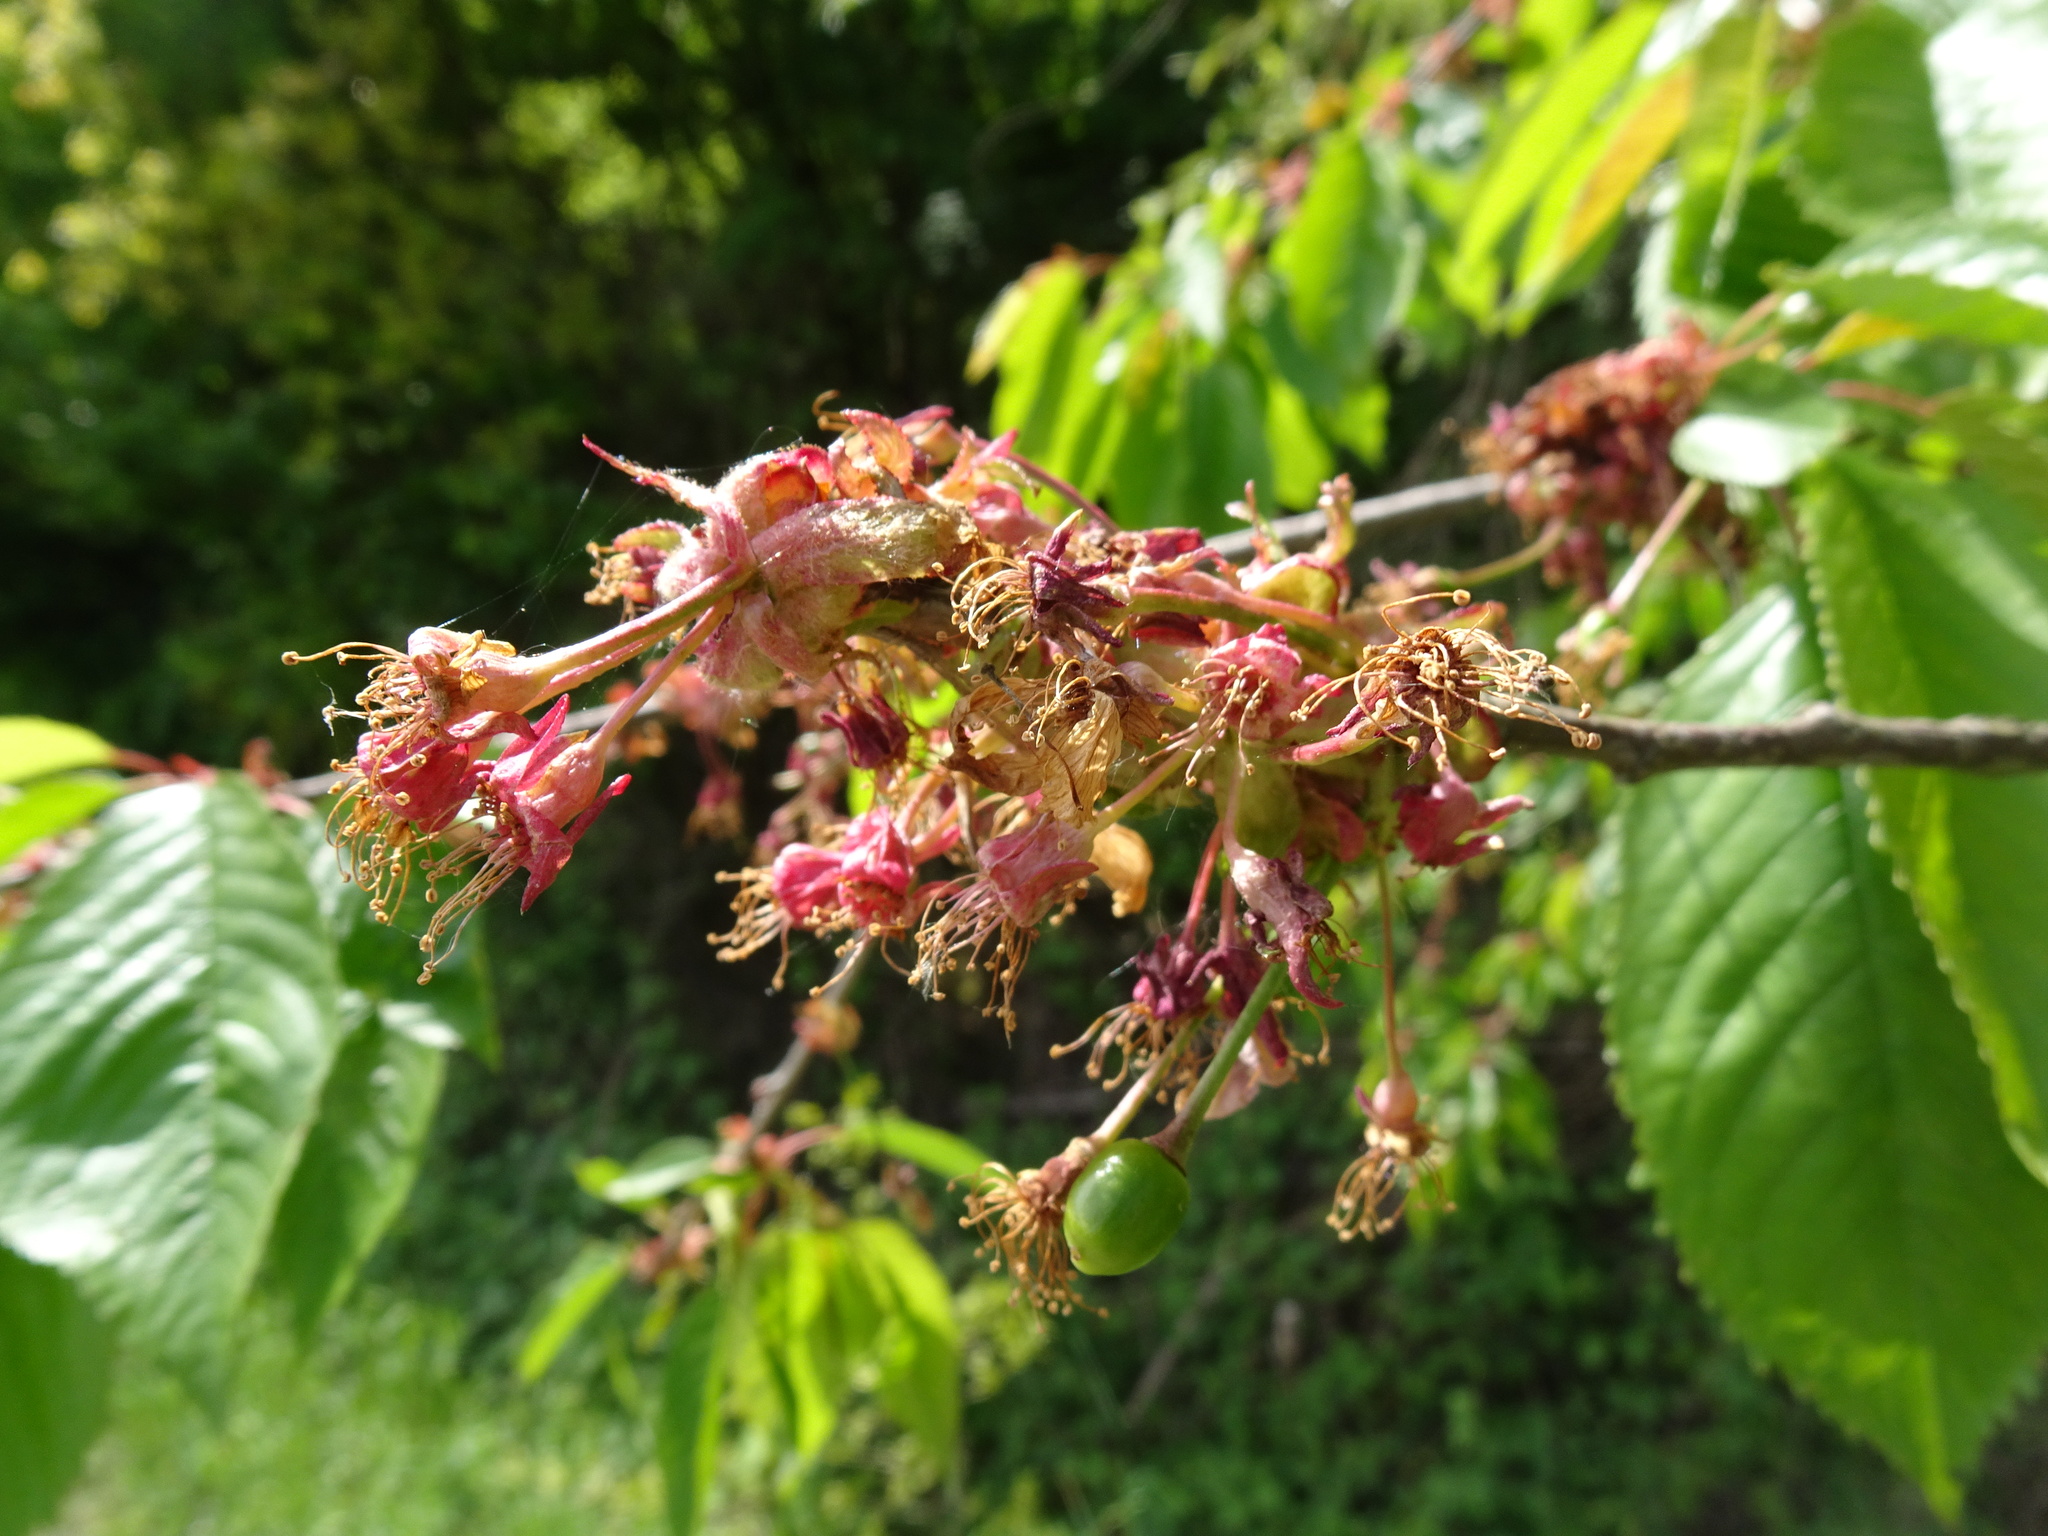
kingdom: Plantae
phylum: Tracheophyta
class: Magnoliopsida
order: Rosales
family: Rosaceae
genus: Prunus
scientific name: Prunus avium
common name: Sweet cherry
